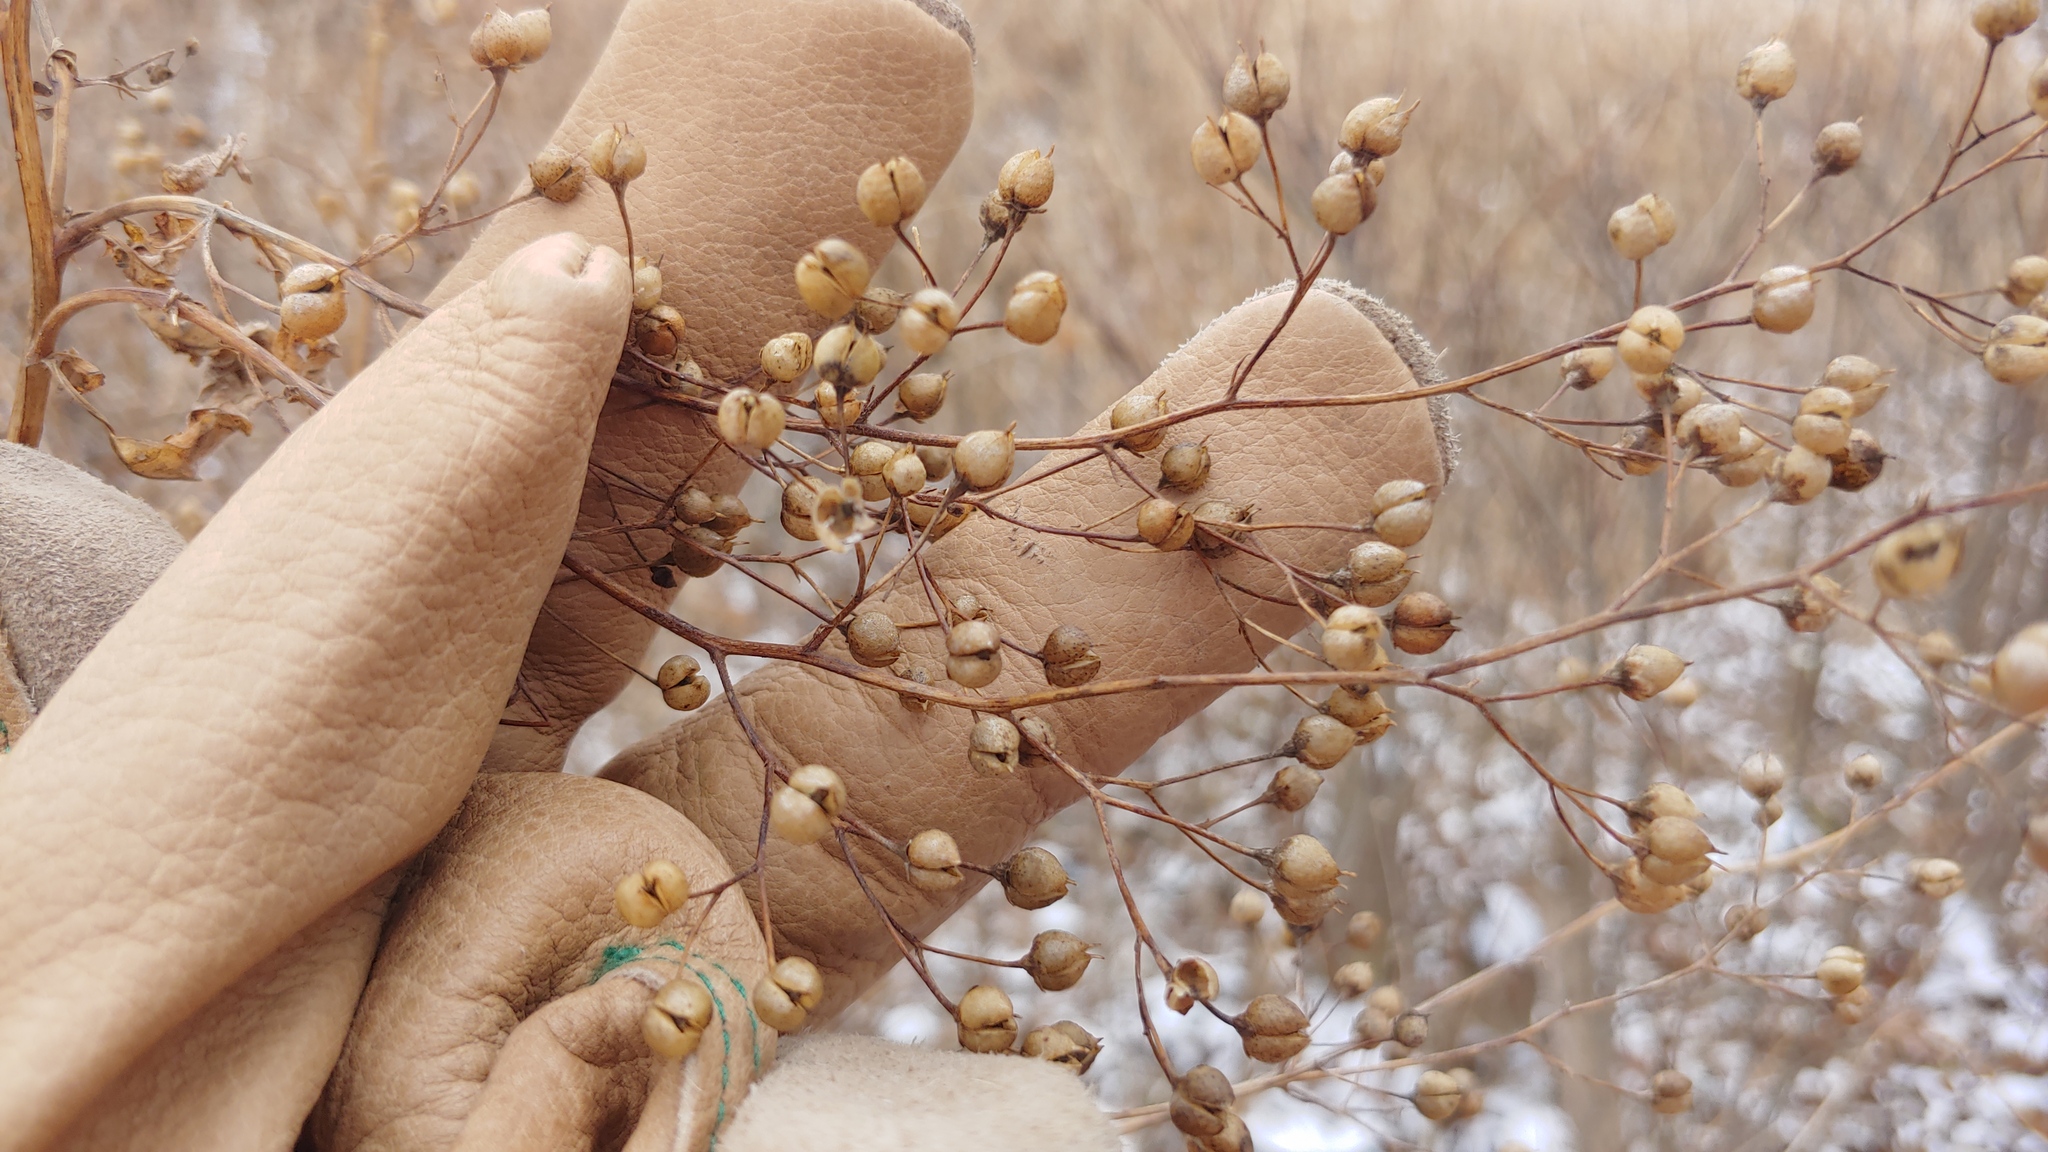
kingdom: Plantae
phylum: Tracheophyta
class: Magnoliopsida
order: Lamiales
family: Scrophulariaceae
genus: Scrophularia
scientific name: Scrophularia marilandica
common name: Eastern figwort
